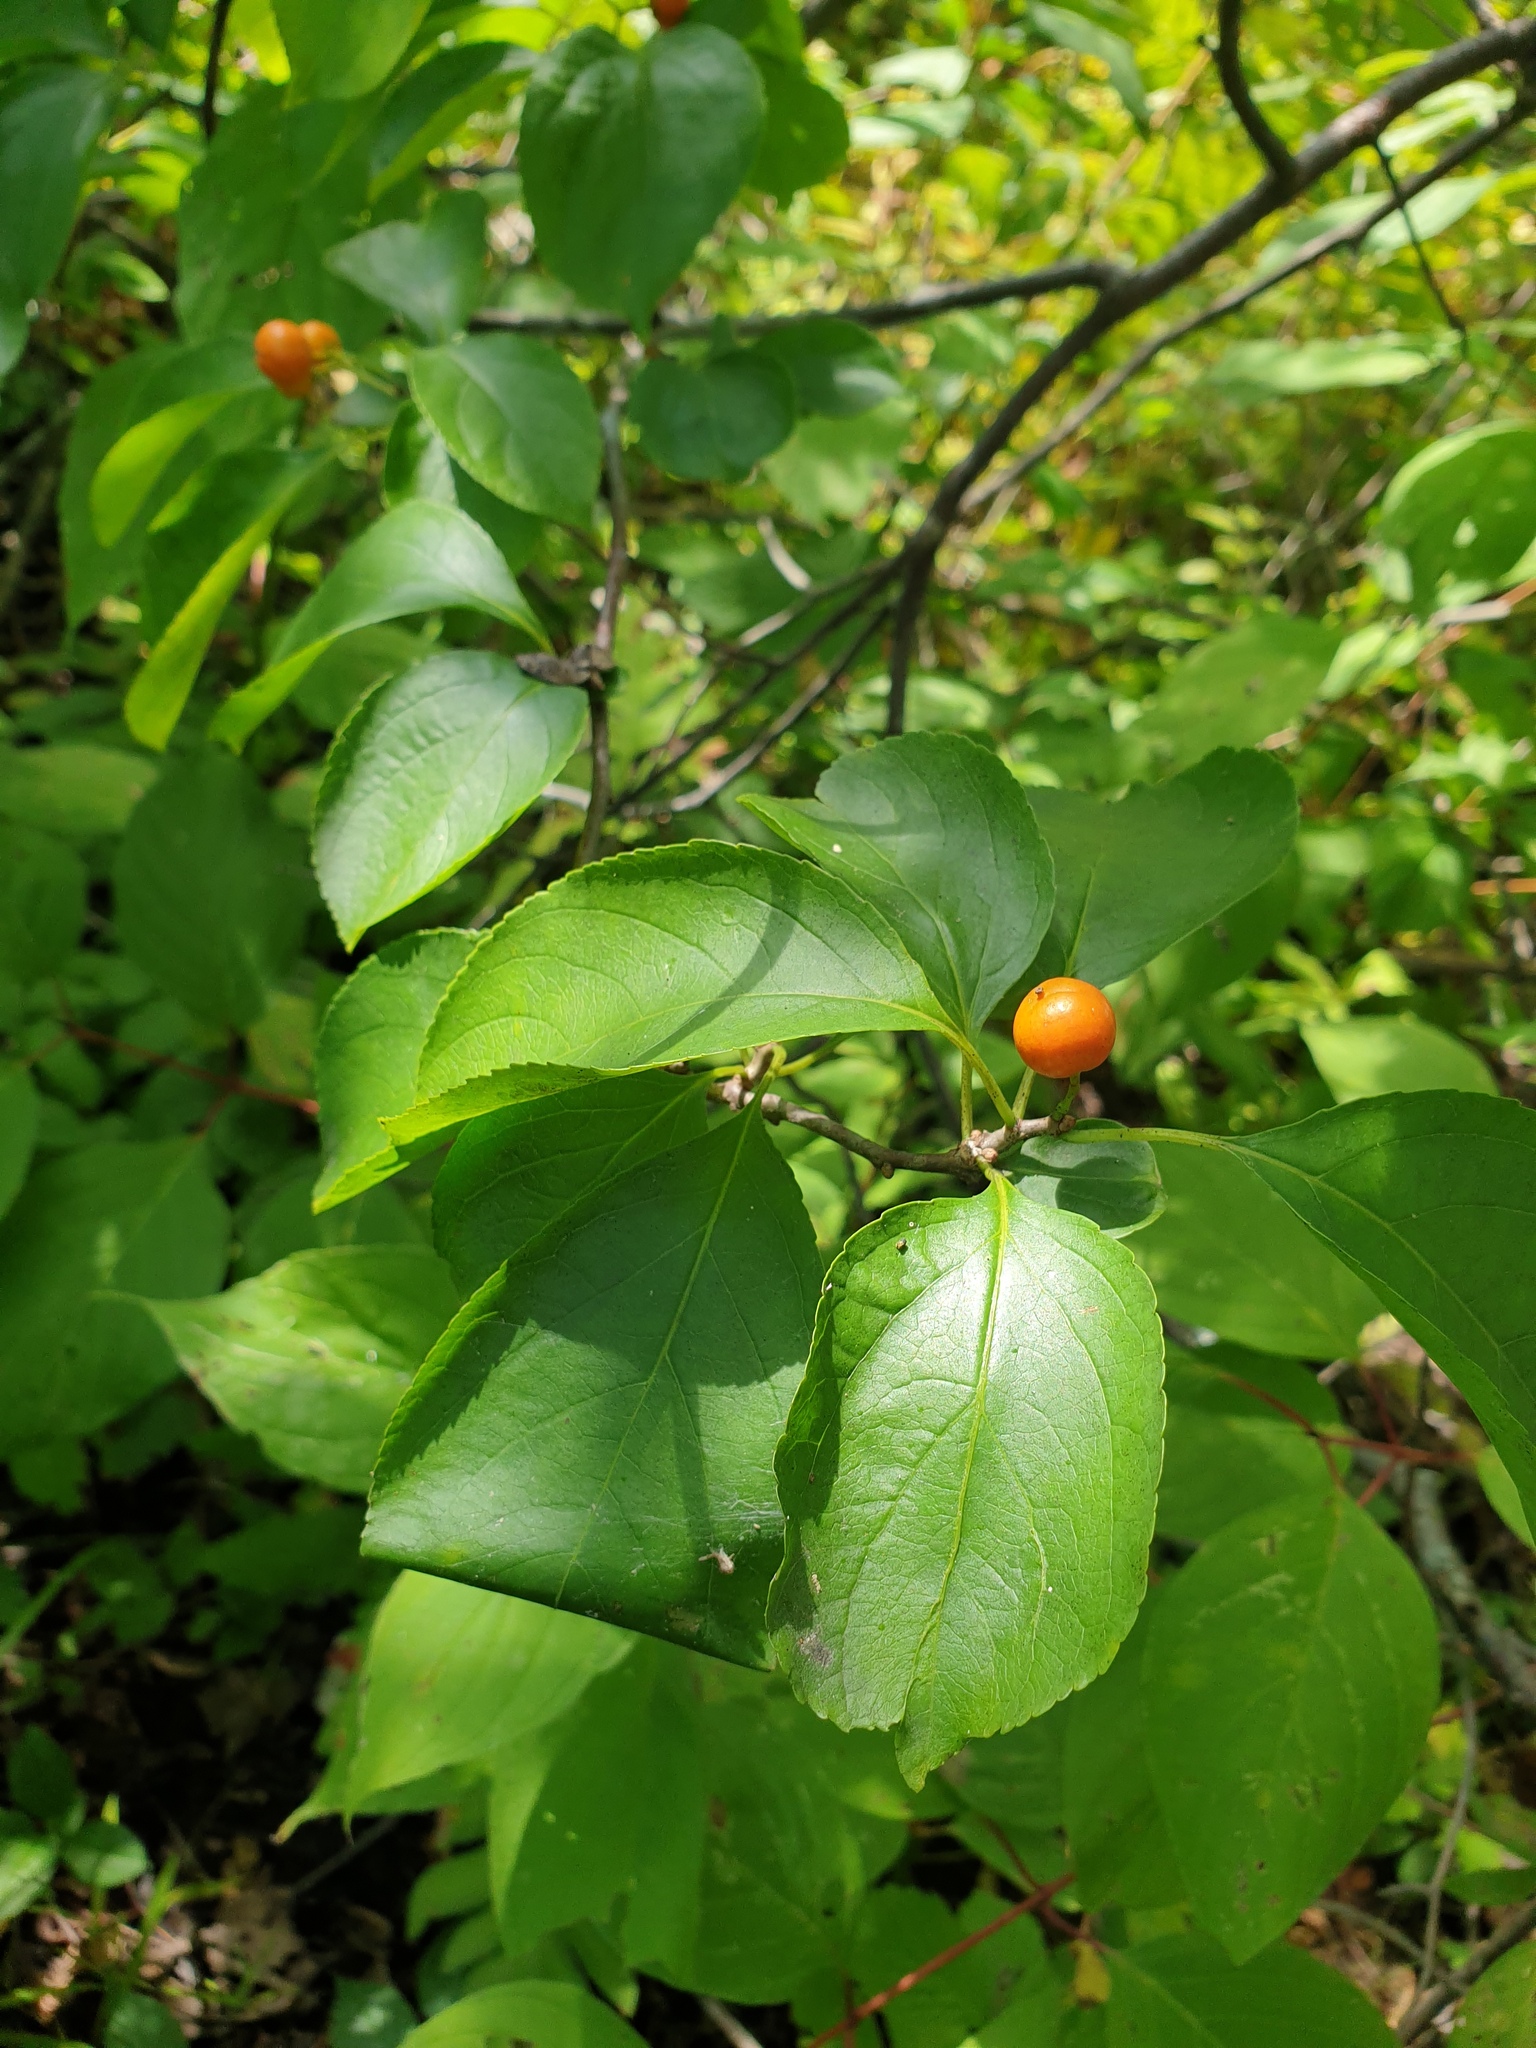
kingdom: Plantae
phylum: Tracheophyta
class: Magnoliopsida
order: Celastrales
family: Celastraceae
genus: Celastrus
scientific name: Celastrus scandens
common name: American bittersweet
